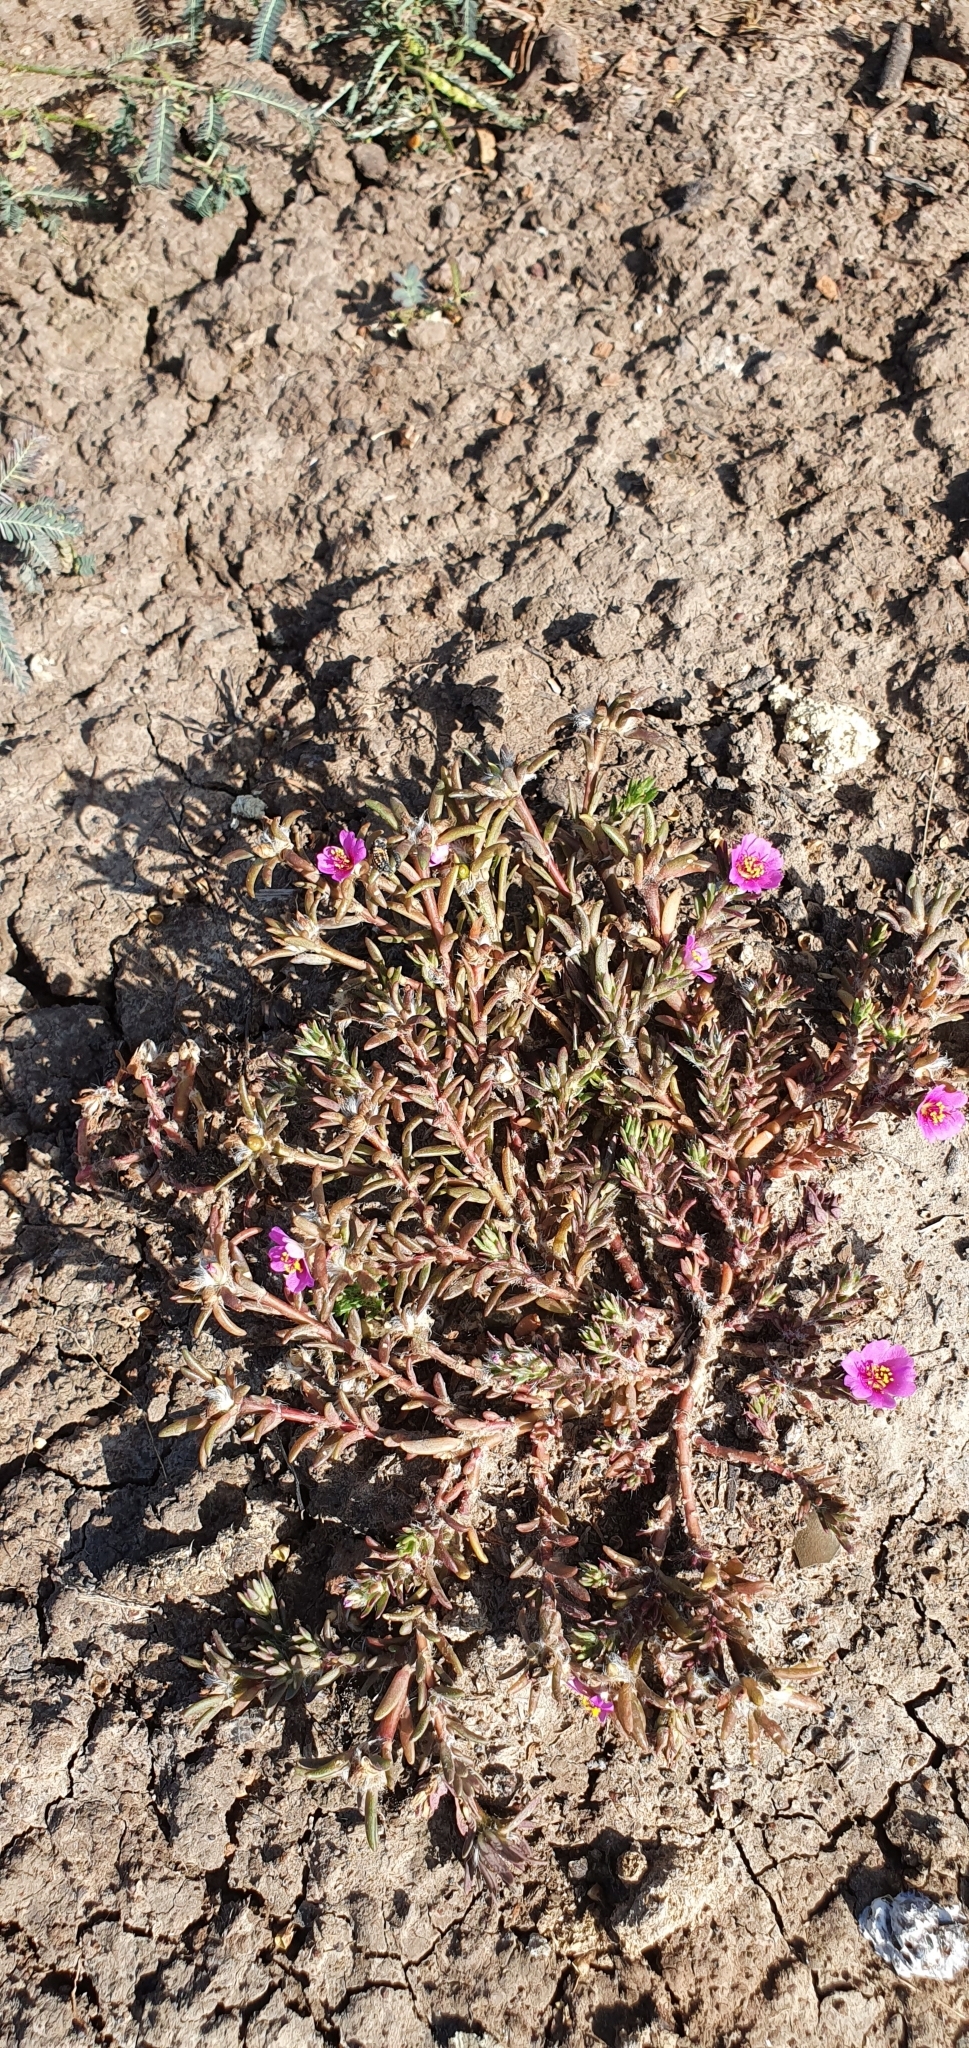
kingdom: Plantae
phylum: Tracheophyta
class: Magnoliopsida
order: Caryophyllales
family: Portulacaceae
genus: Portulaca
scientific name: Portulaca pilosa
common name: Kiss me quick
